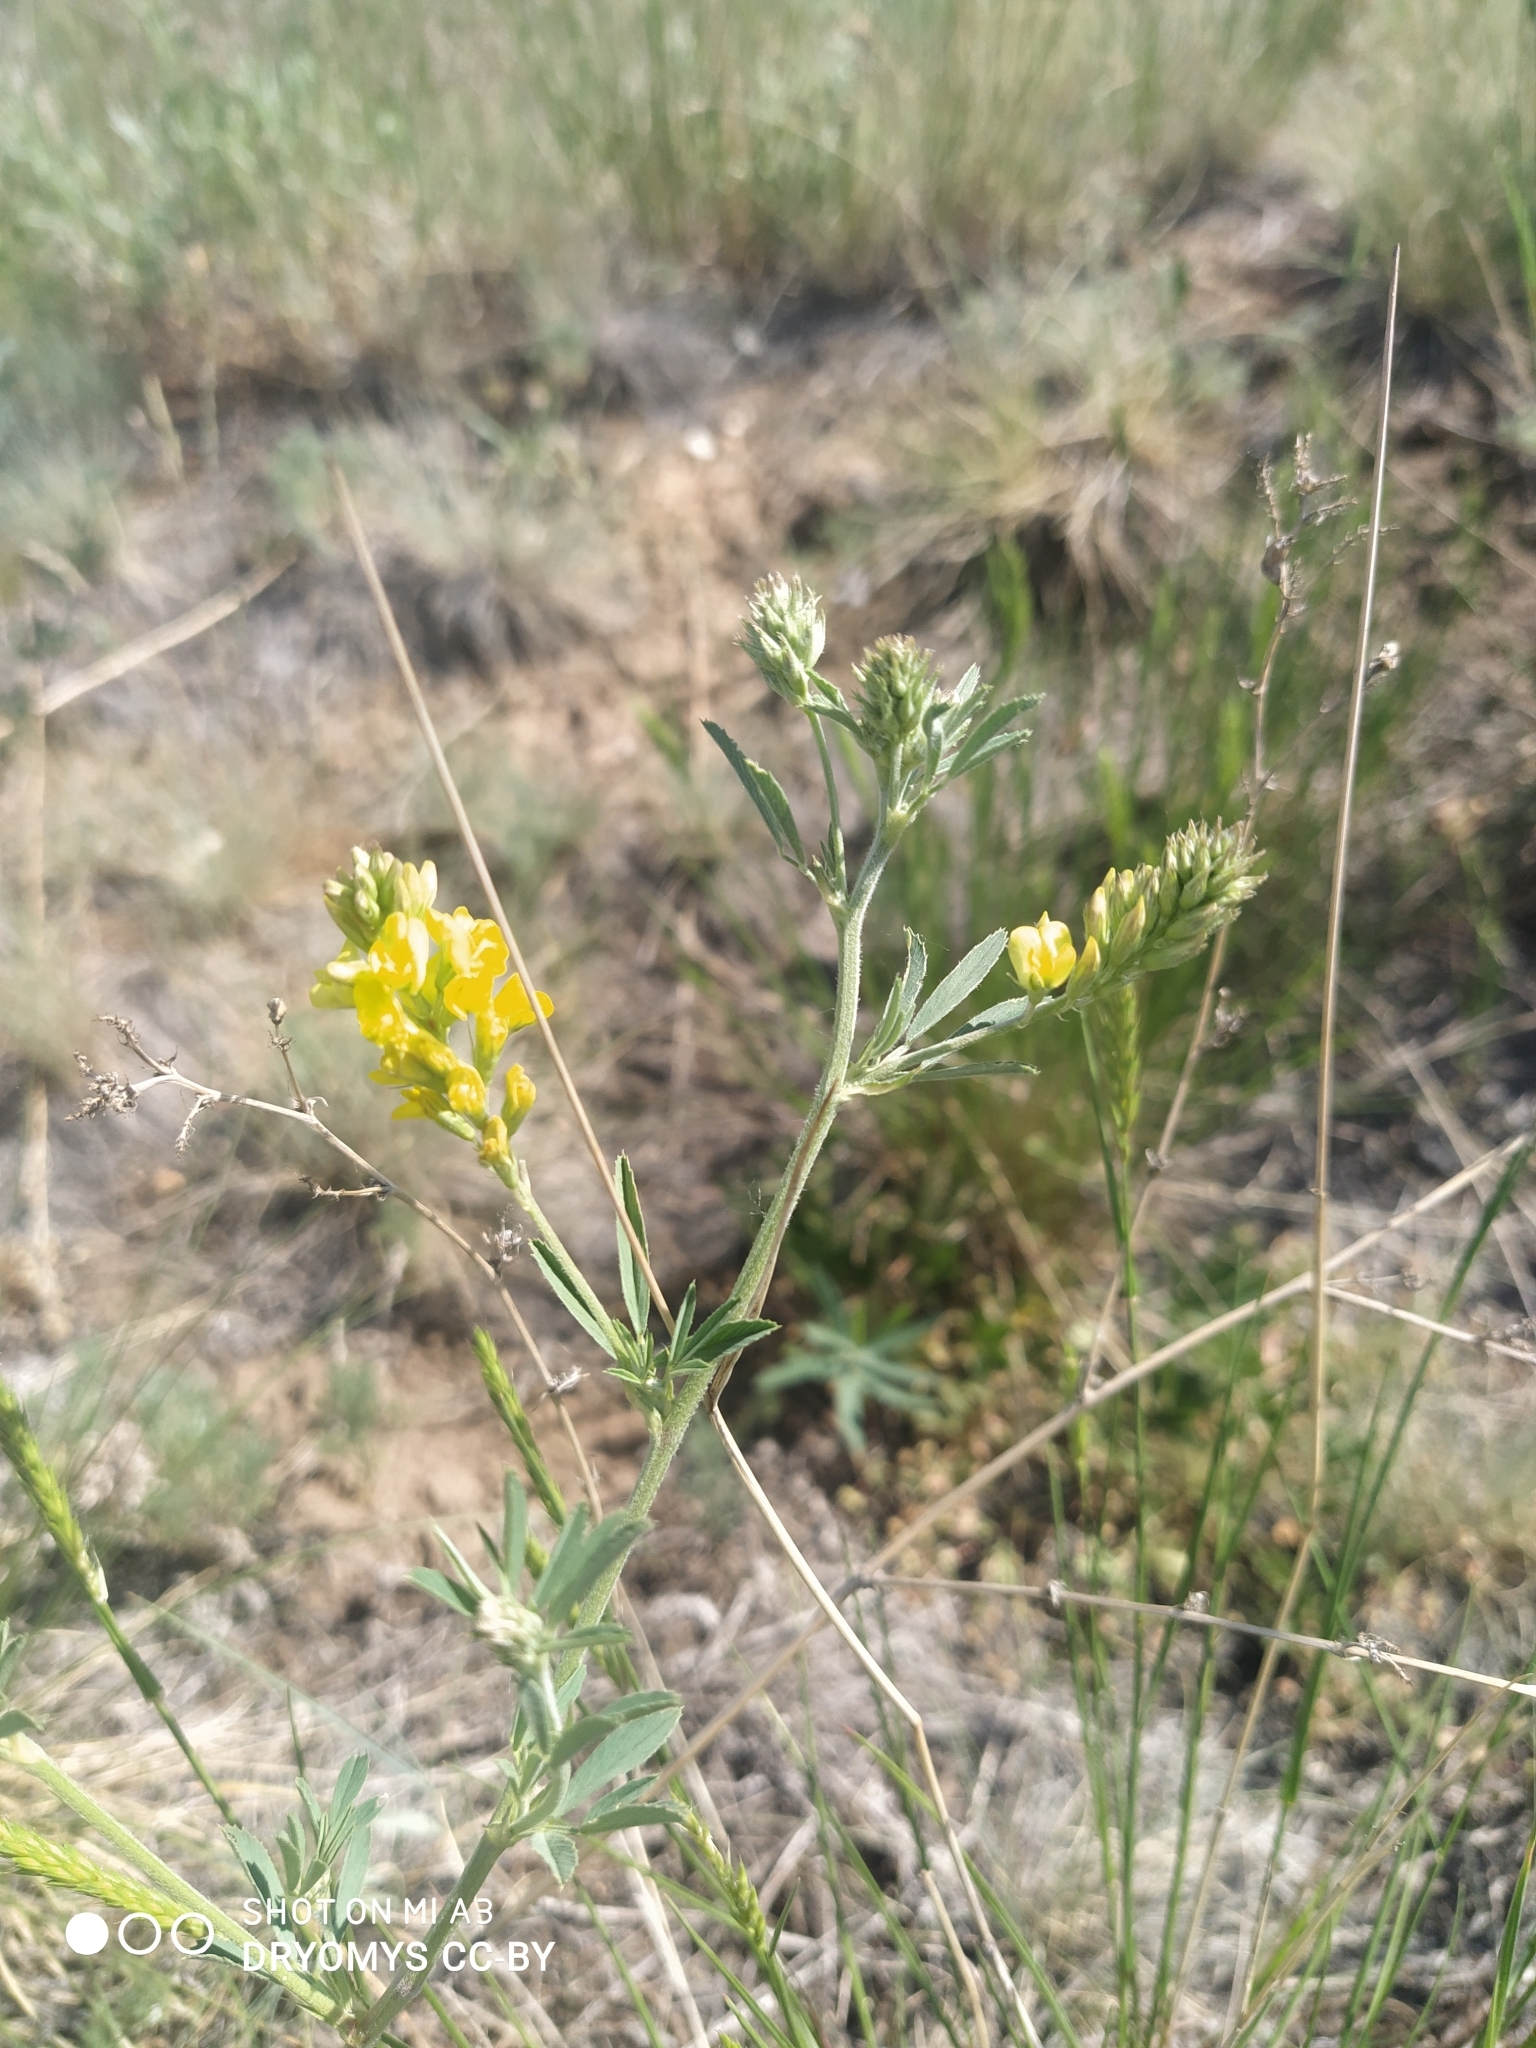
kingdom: Plantae
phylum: Tracheophyta
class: Magnoliopsida
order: Fabales
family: Fabaceae
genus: Melilotus
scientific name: Melilotus officinalis
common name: Sweetclover
